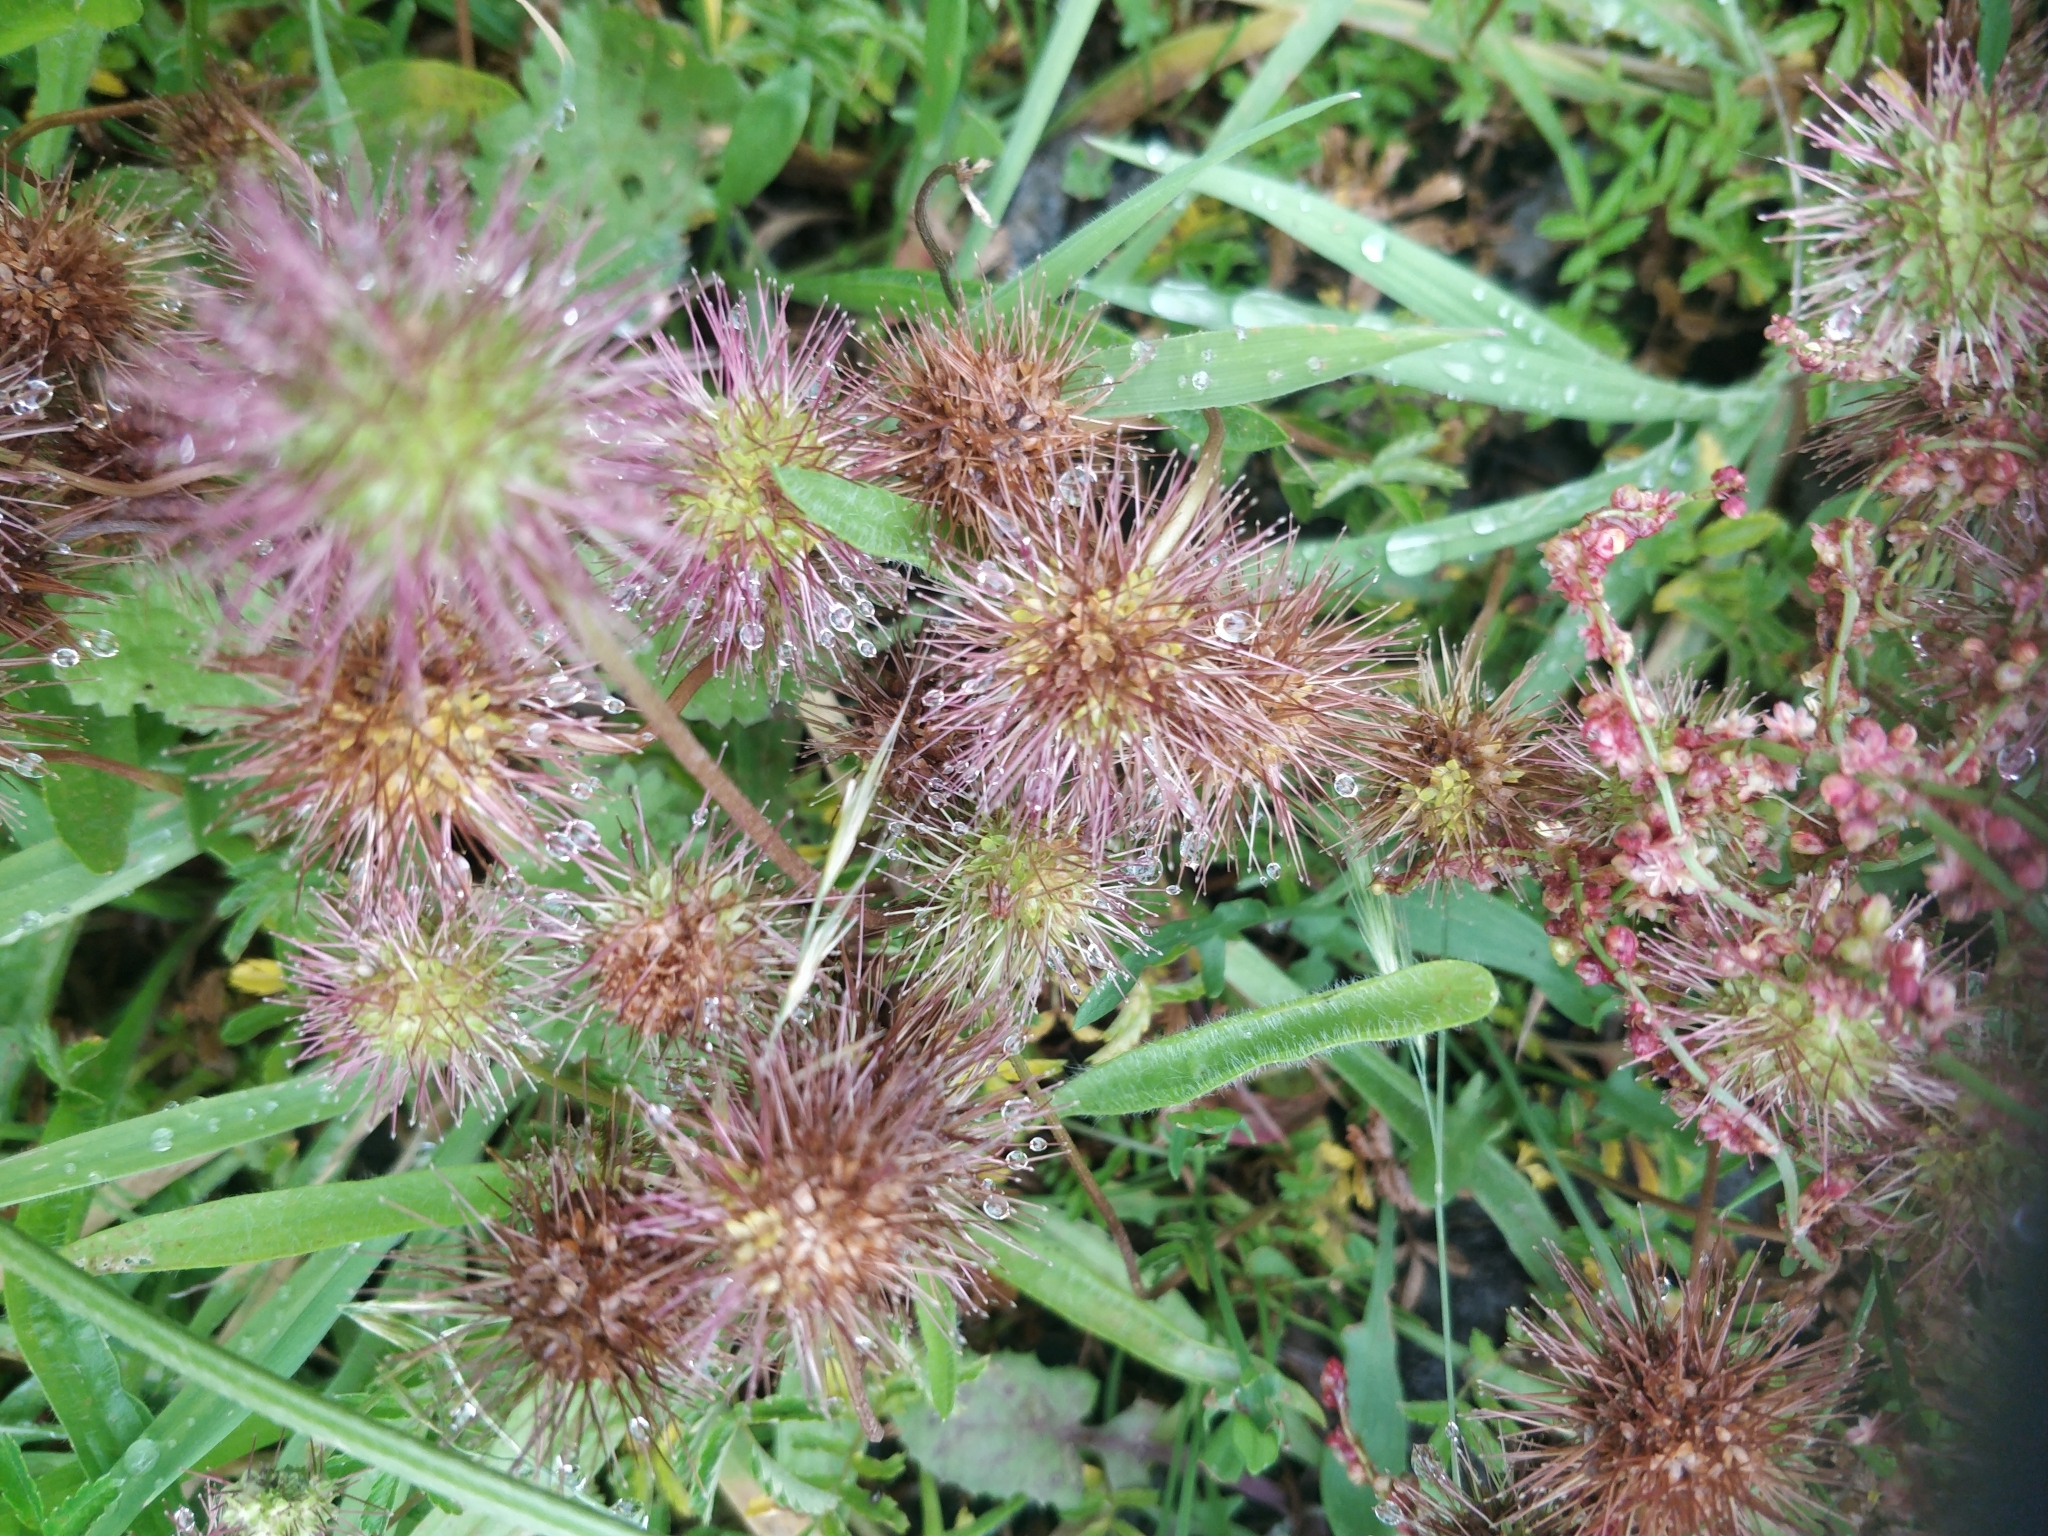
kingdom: Plantae
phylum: Tracheophyta
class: Magnoliopsida
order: Rosales
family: Rosaceae
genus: Acaena
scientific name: Acaena novae-zelandiae
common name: Pirri-pirri-bur
